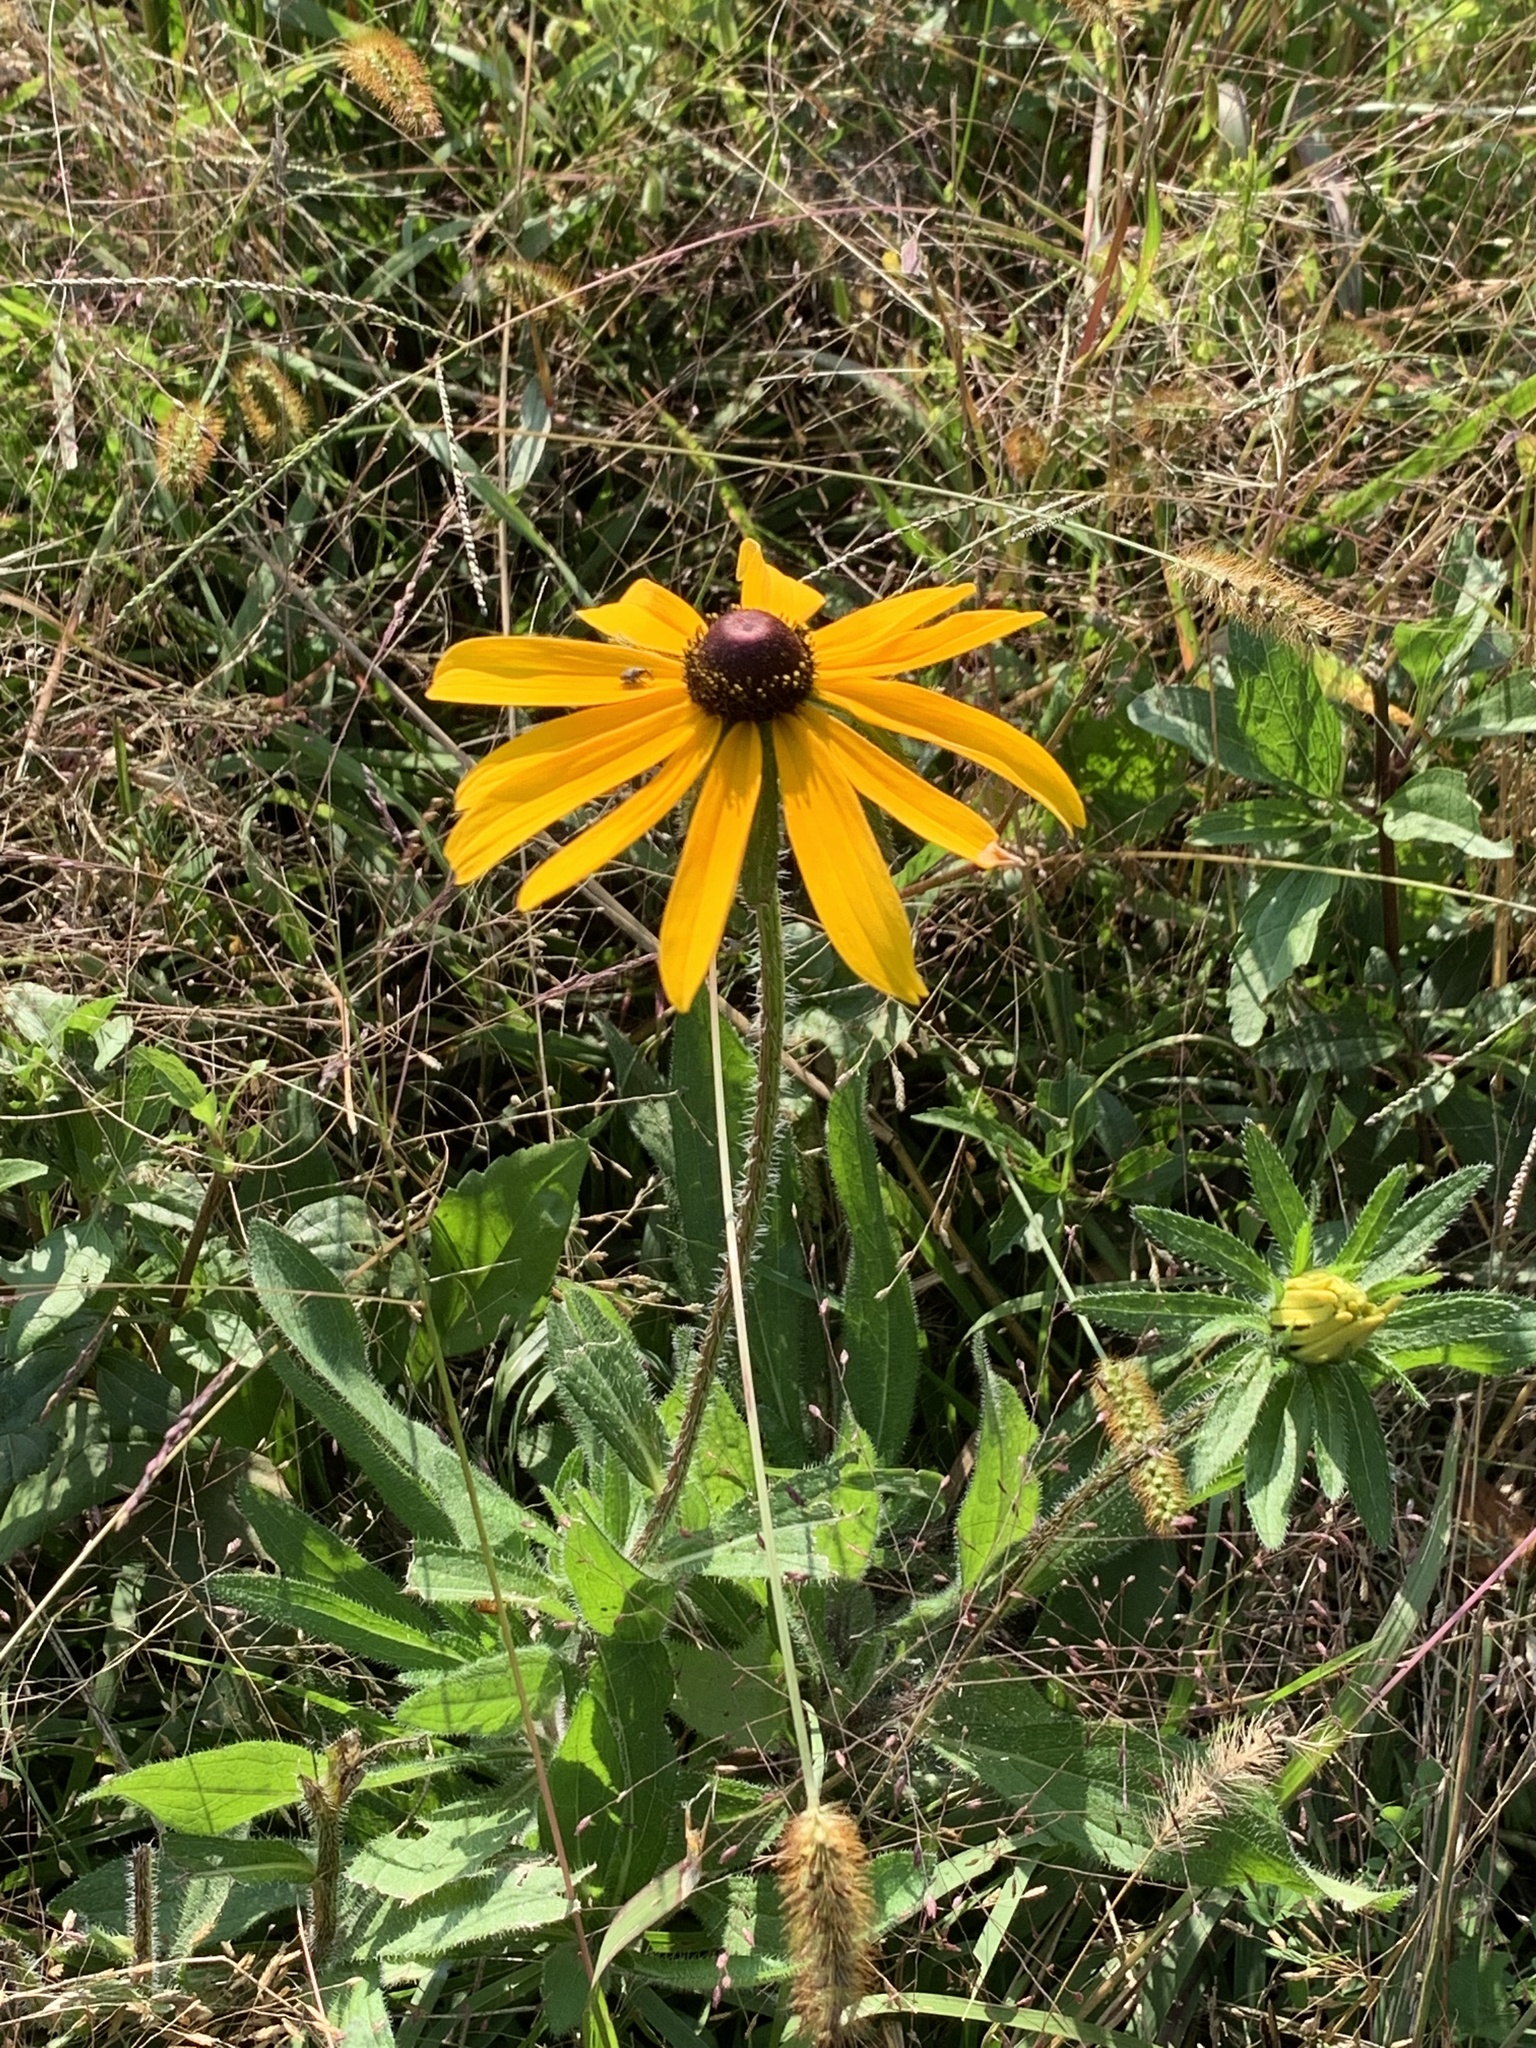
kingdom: Plantae
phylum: Tracheophyta
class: Magnoliopsida
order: Asterales
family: Asteraceae
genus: Rudbeckia
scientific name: Rudbeckia hirta
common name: Black-eyed-susan
